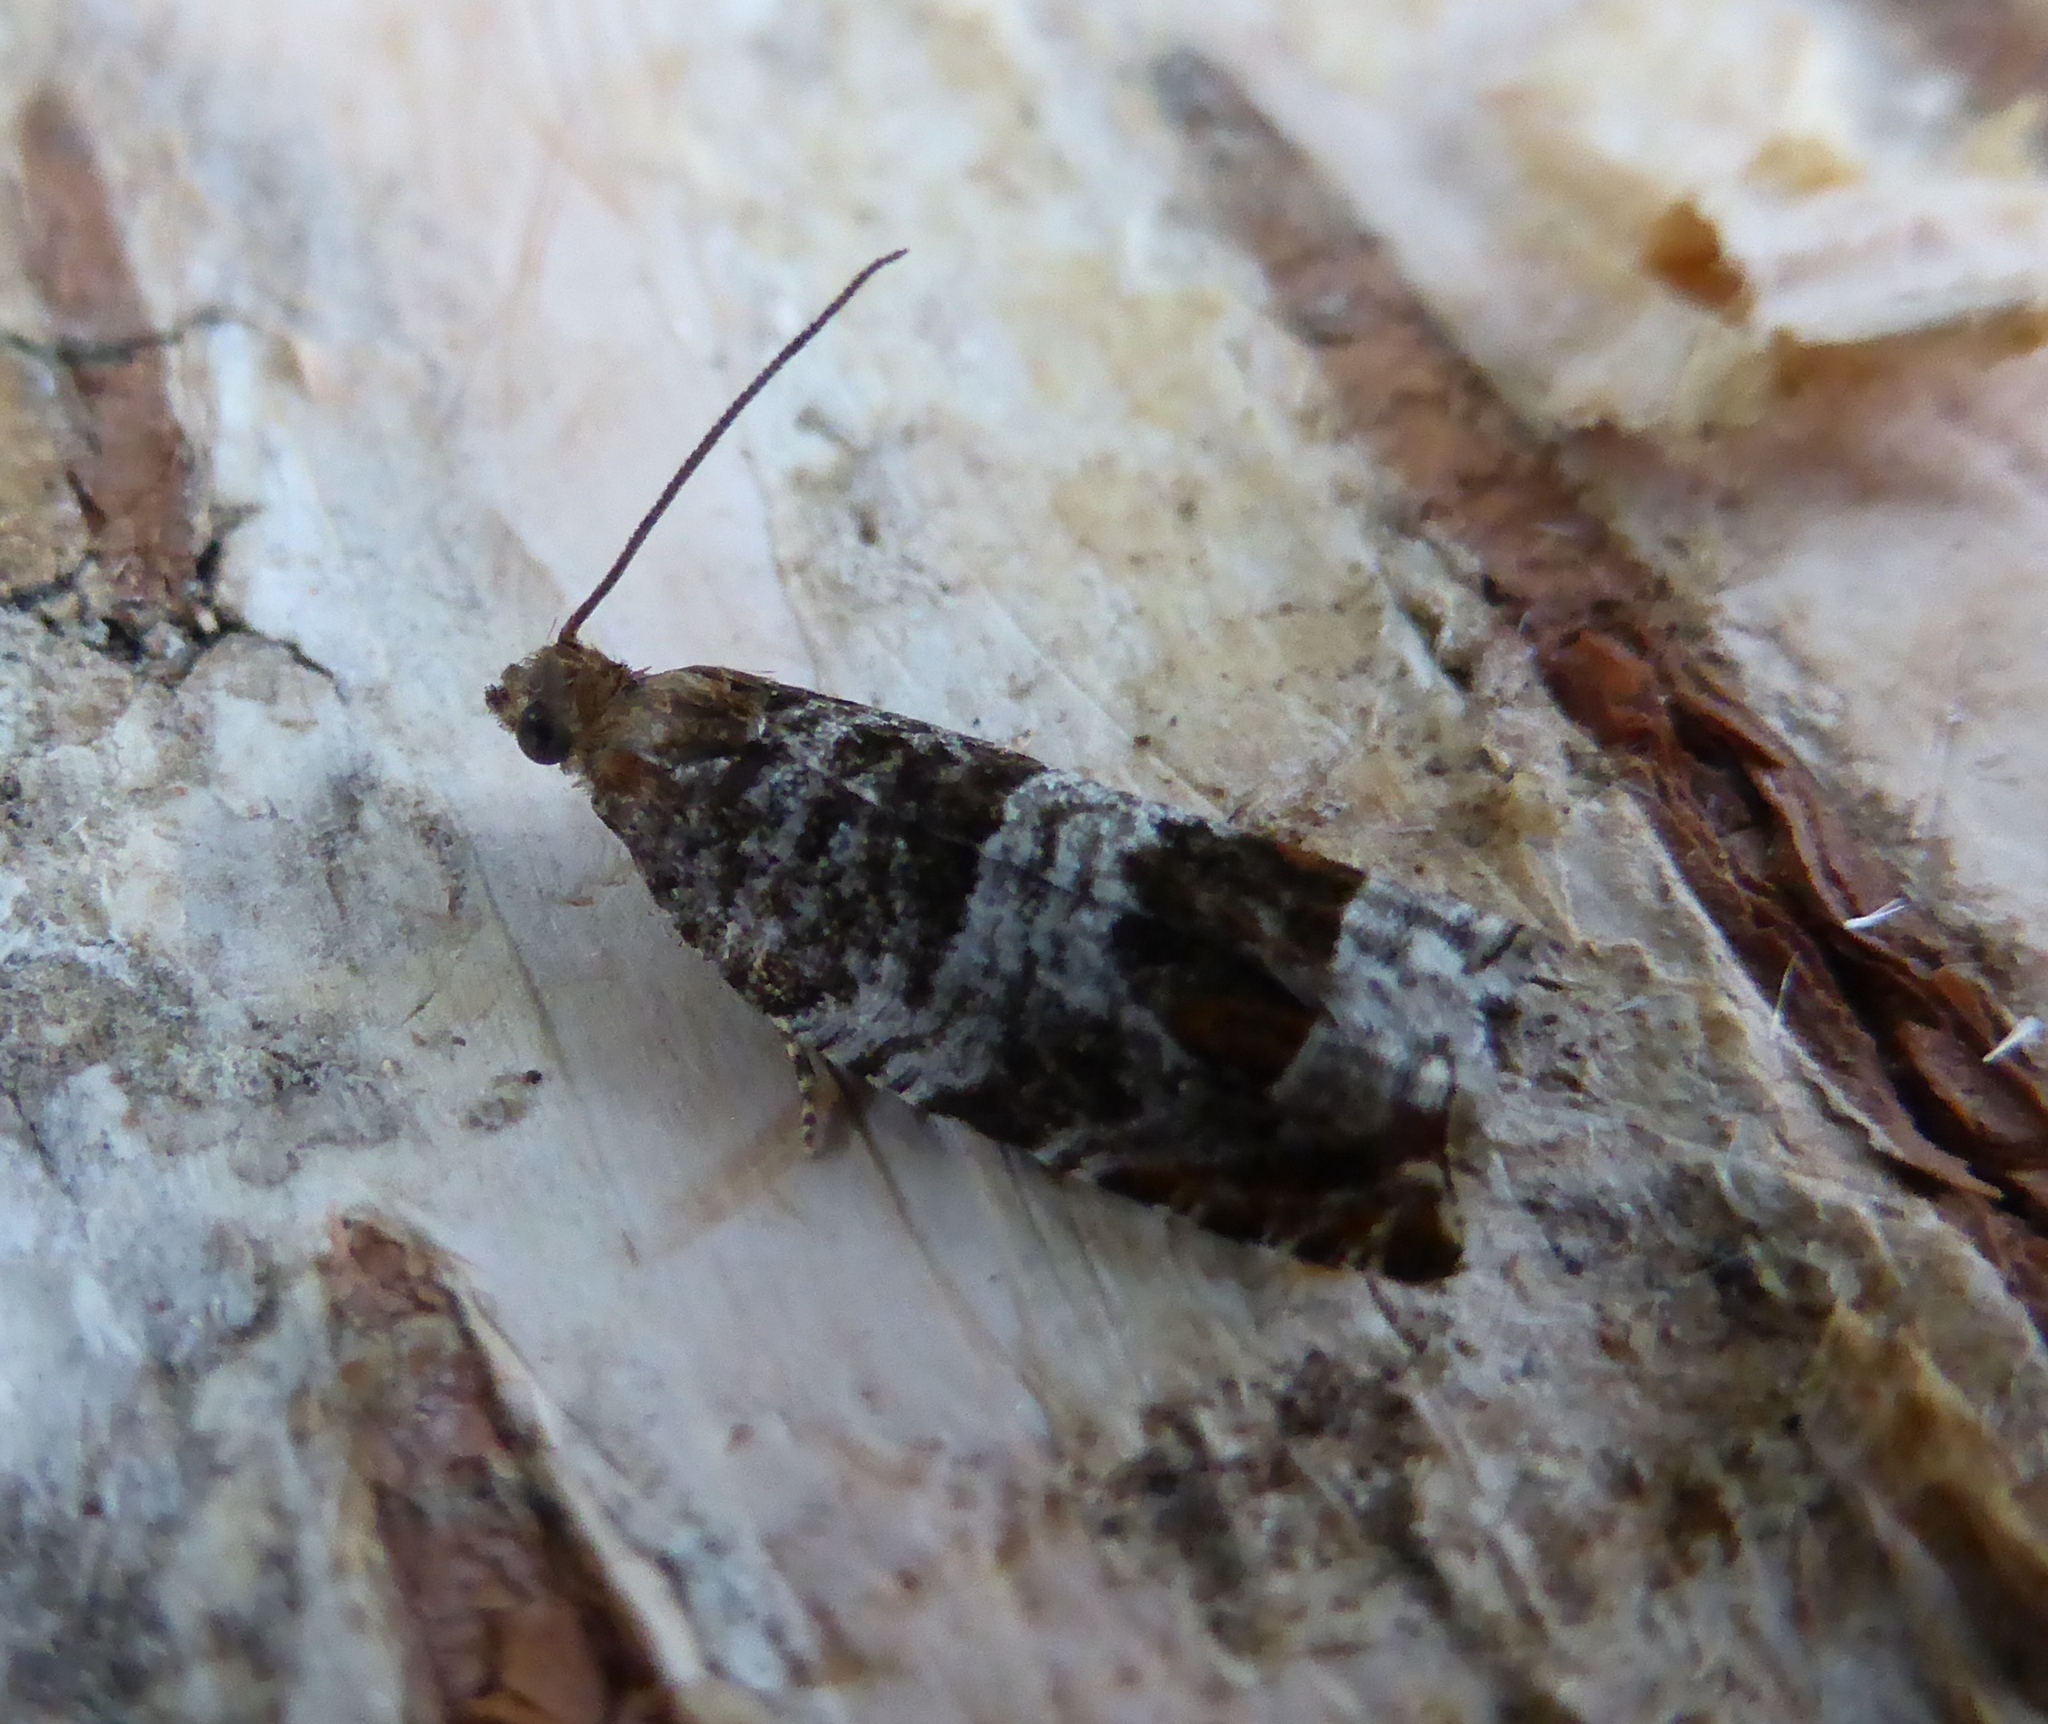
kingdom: Animalia
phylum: Arthropoda
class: Insecta
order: Lepidoptera
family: Tortricidae
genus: Ancylis
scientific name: Ancylis achatana
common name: Triangle-marked roller
